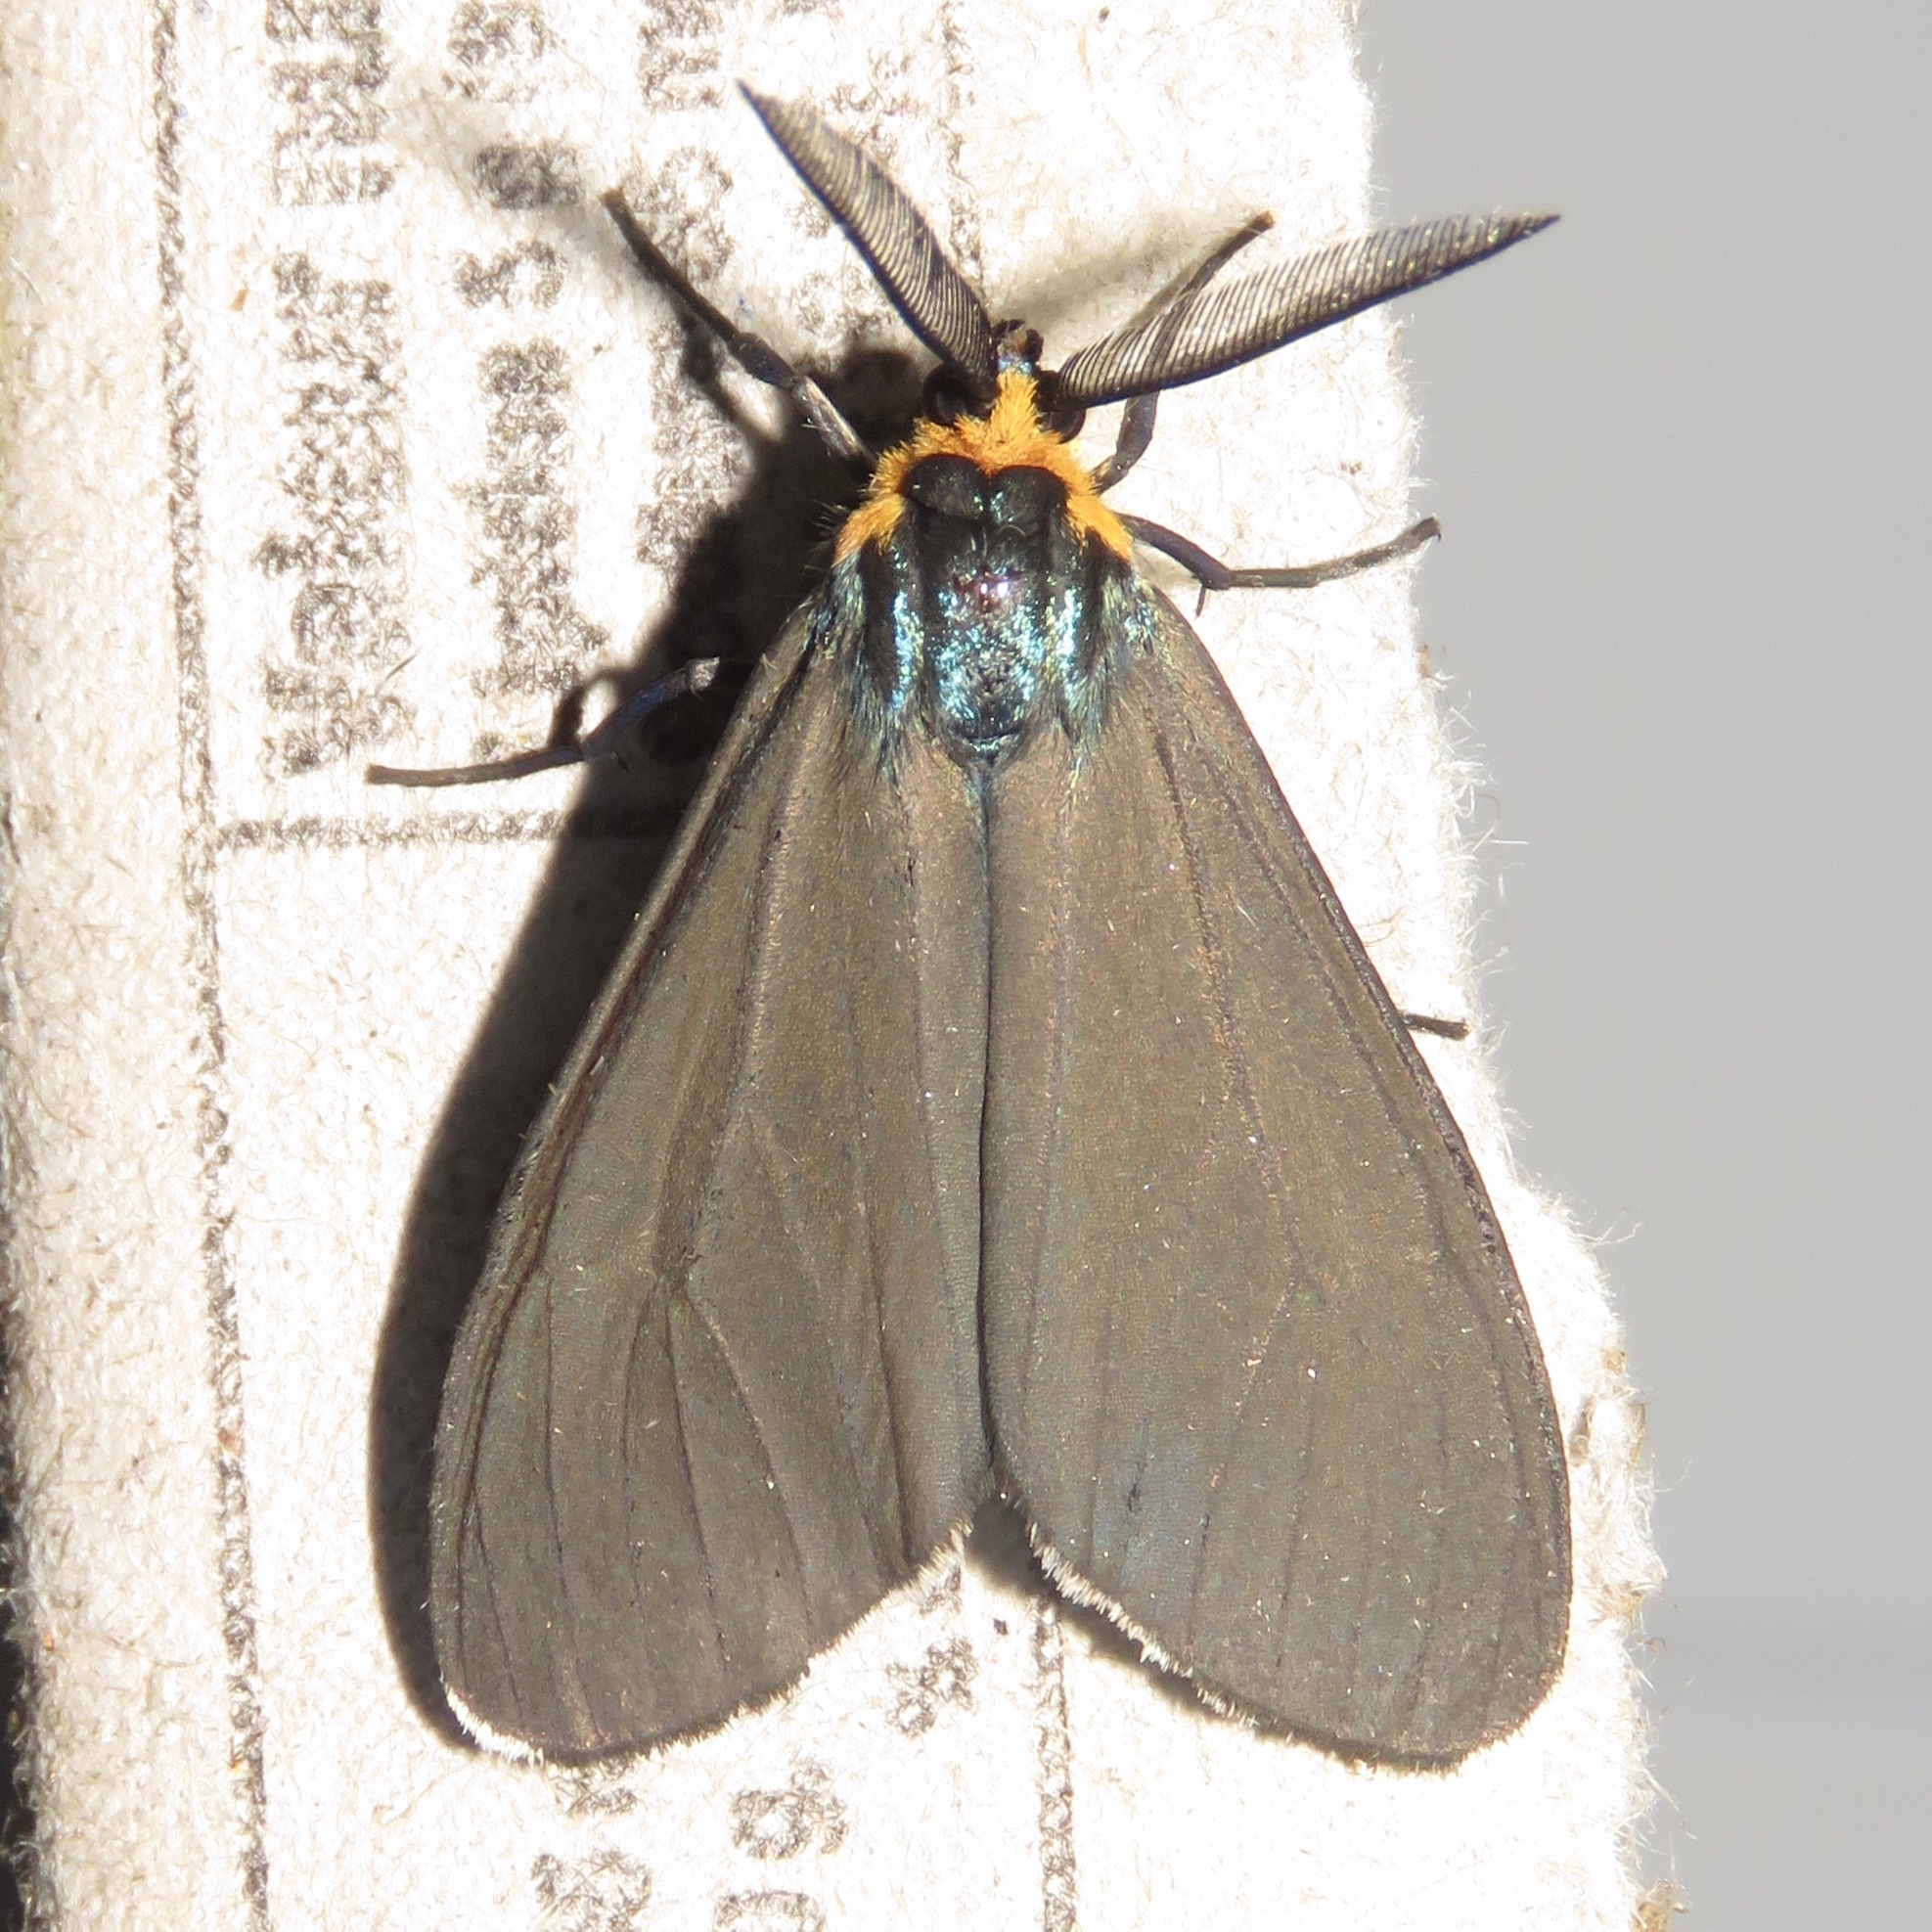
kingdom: Animalia
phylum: Arthropoda
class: Insecta
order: Lepidoptera
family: Erebidae
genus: Ctenucha
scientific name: Ctenucha virginica
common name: Virginia ctenucha moth
